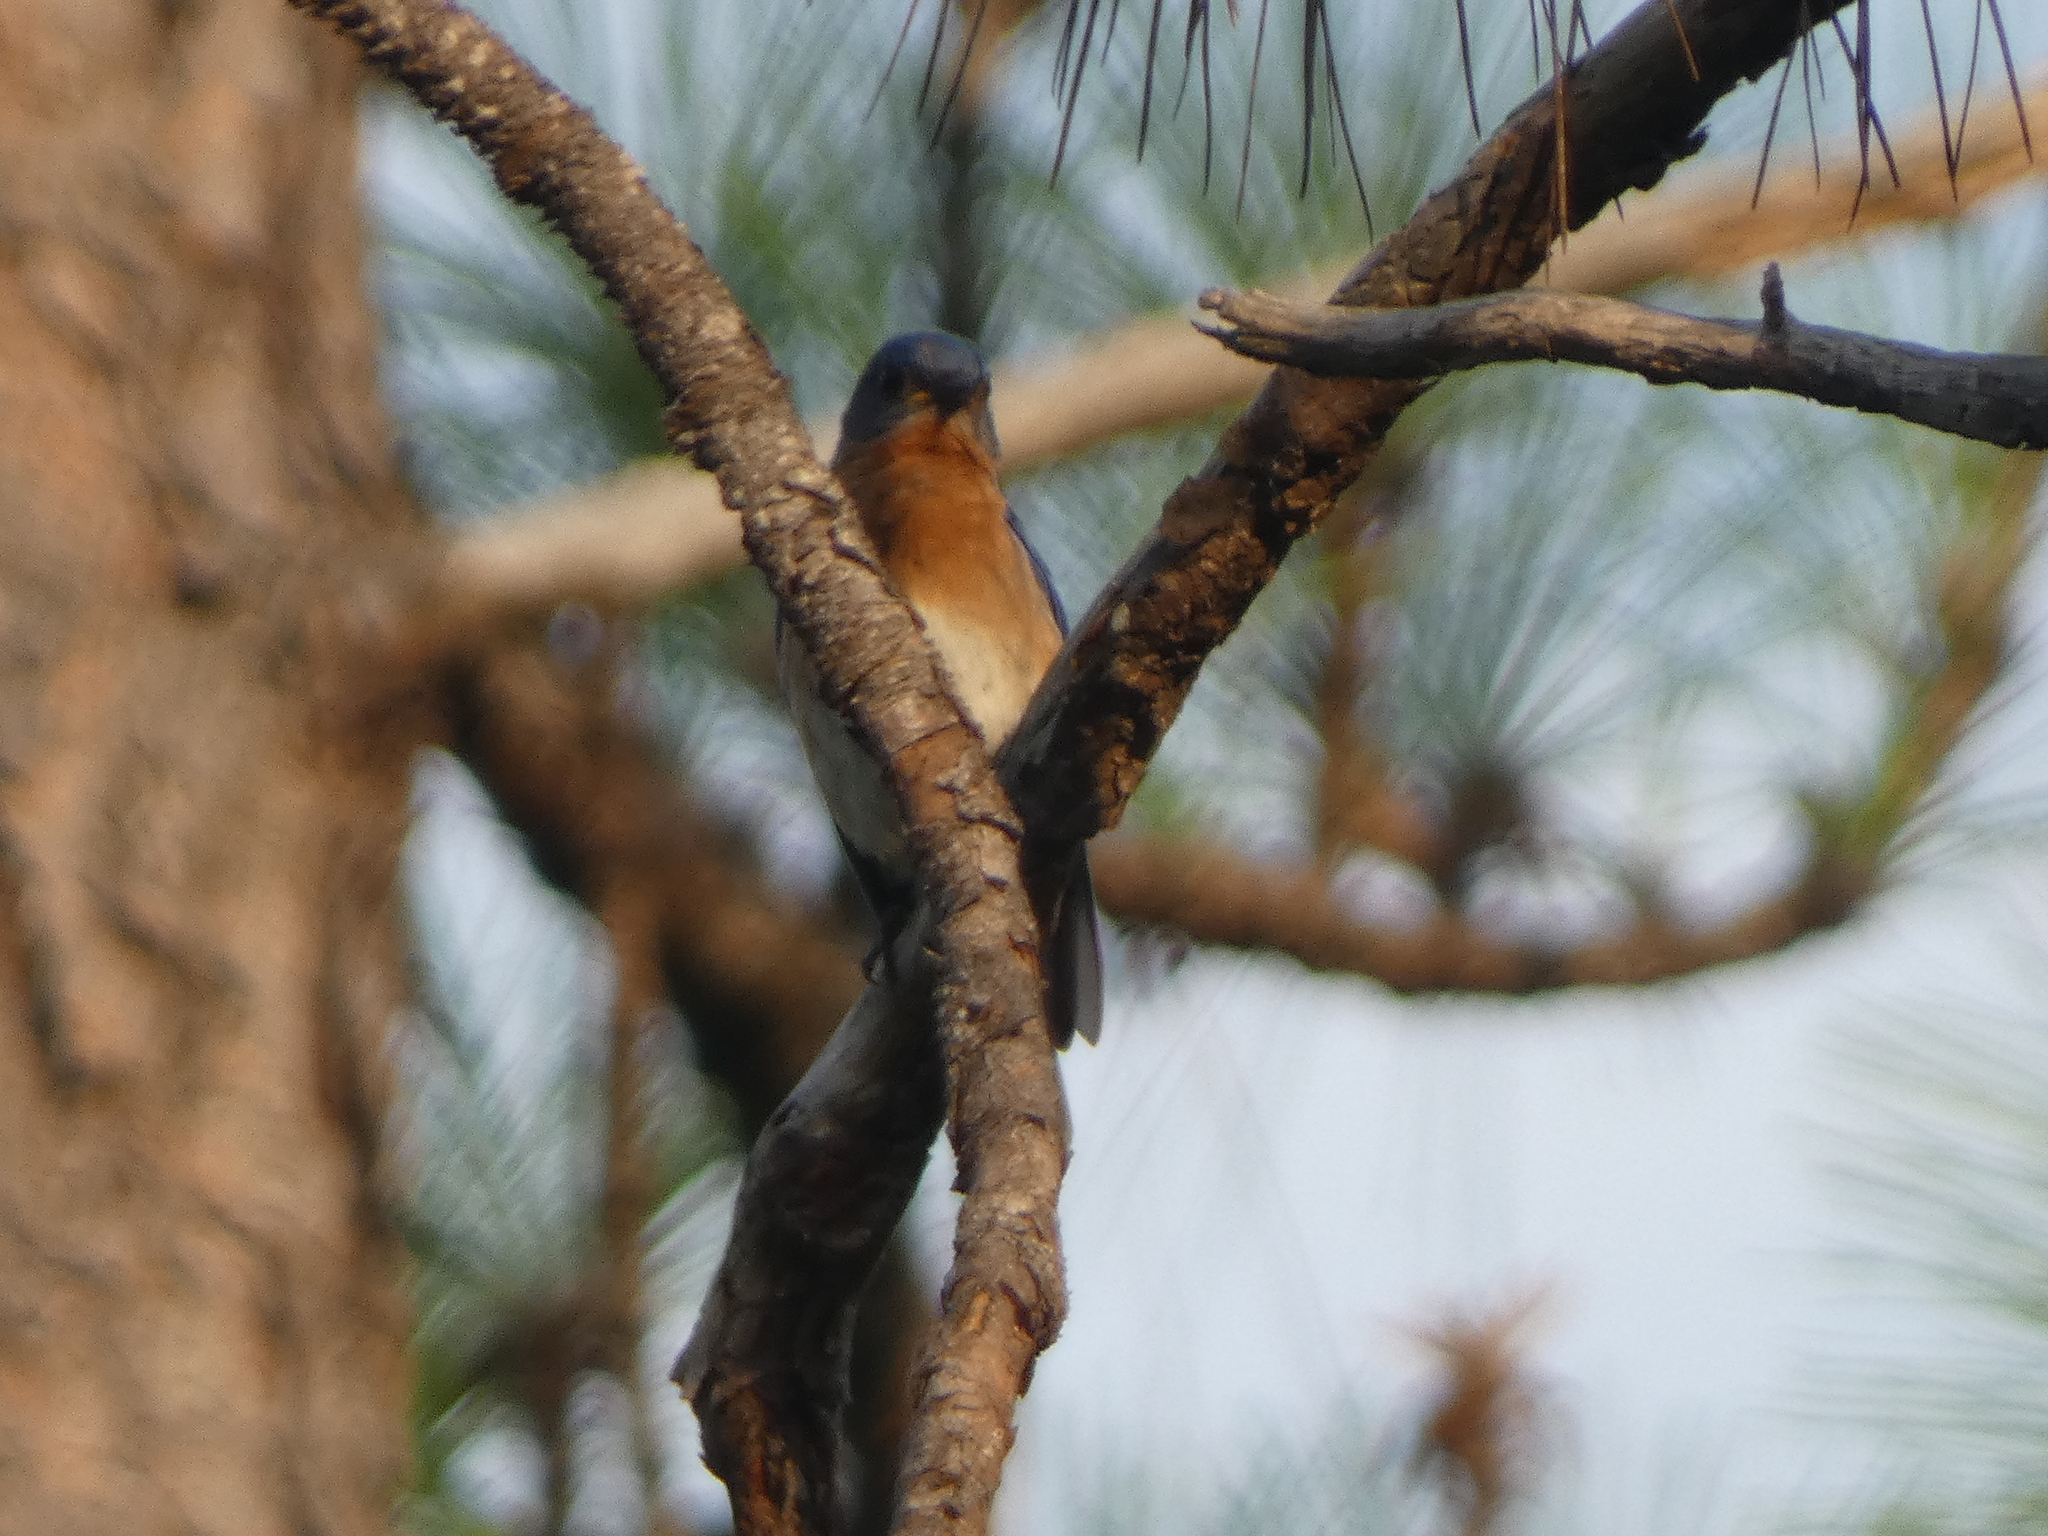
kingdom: Animalia
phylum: Chordata
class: Aves
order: Passeriformes
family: Turdidae
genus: Sialia
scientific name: Sialia sialis
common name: Eastern bluebird
